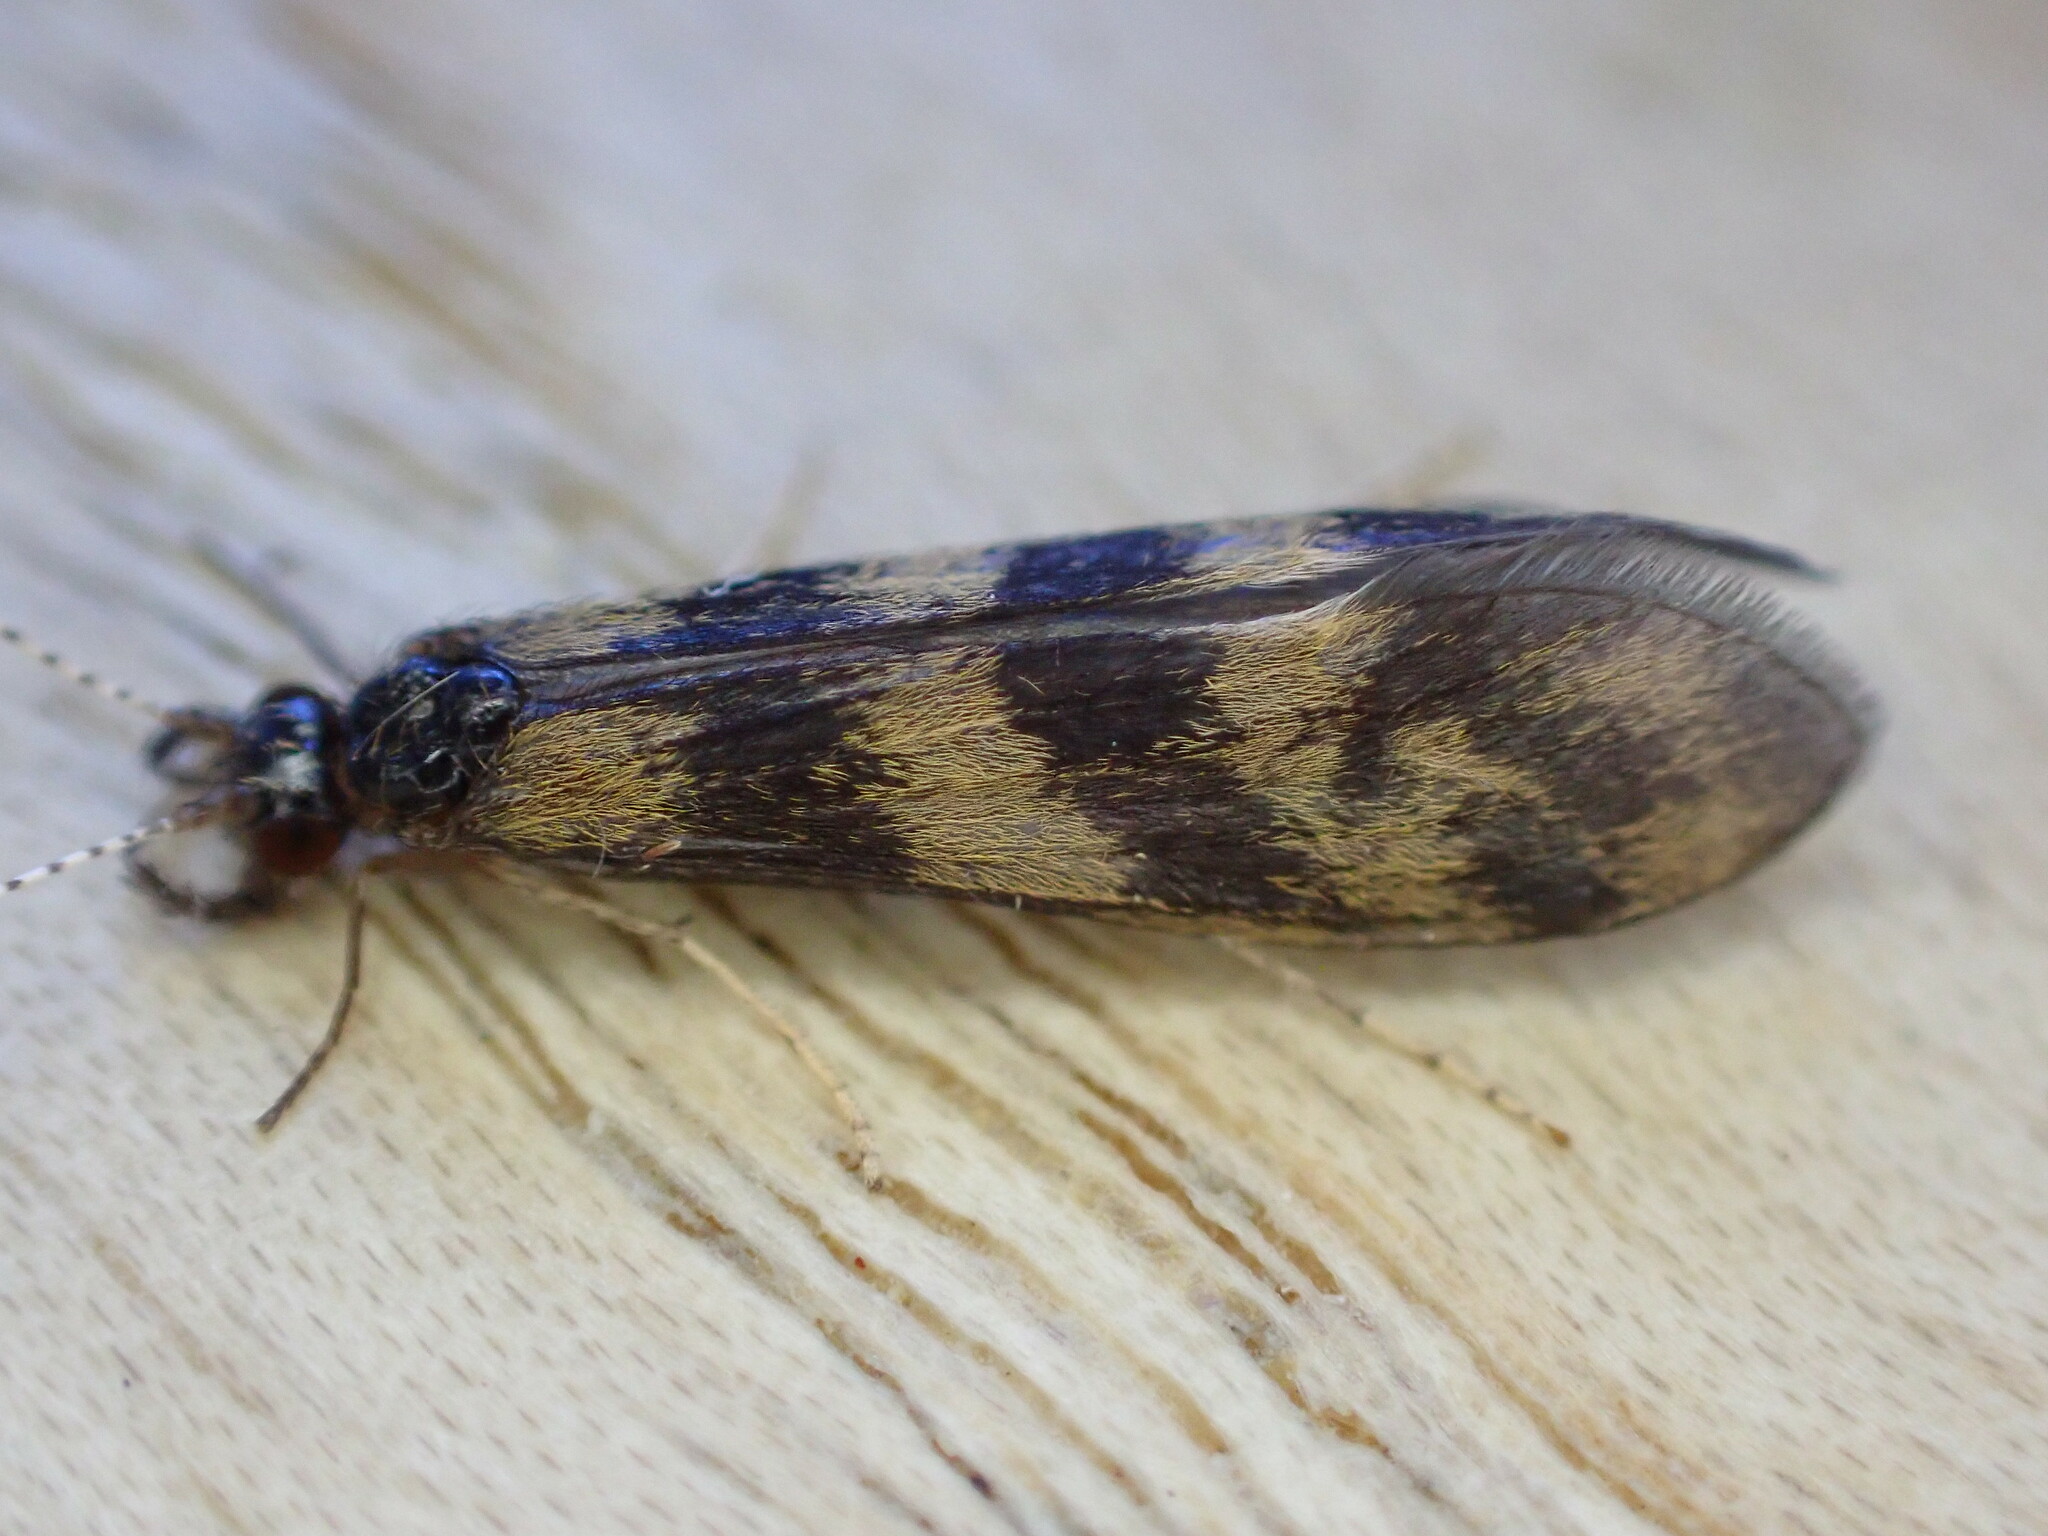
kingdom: Animalia
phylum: Arthropoda
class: Insecta
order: Trichoptera
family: Leptoceridae
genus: Mystacides
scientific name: Mystacides longicornis
